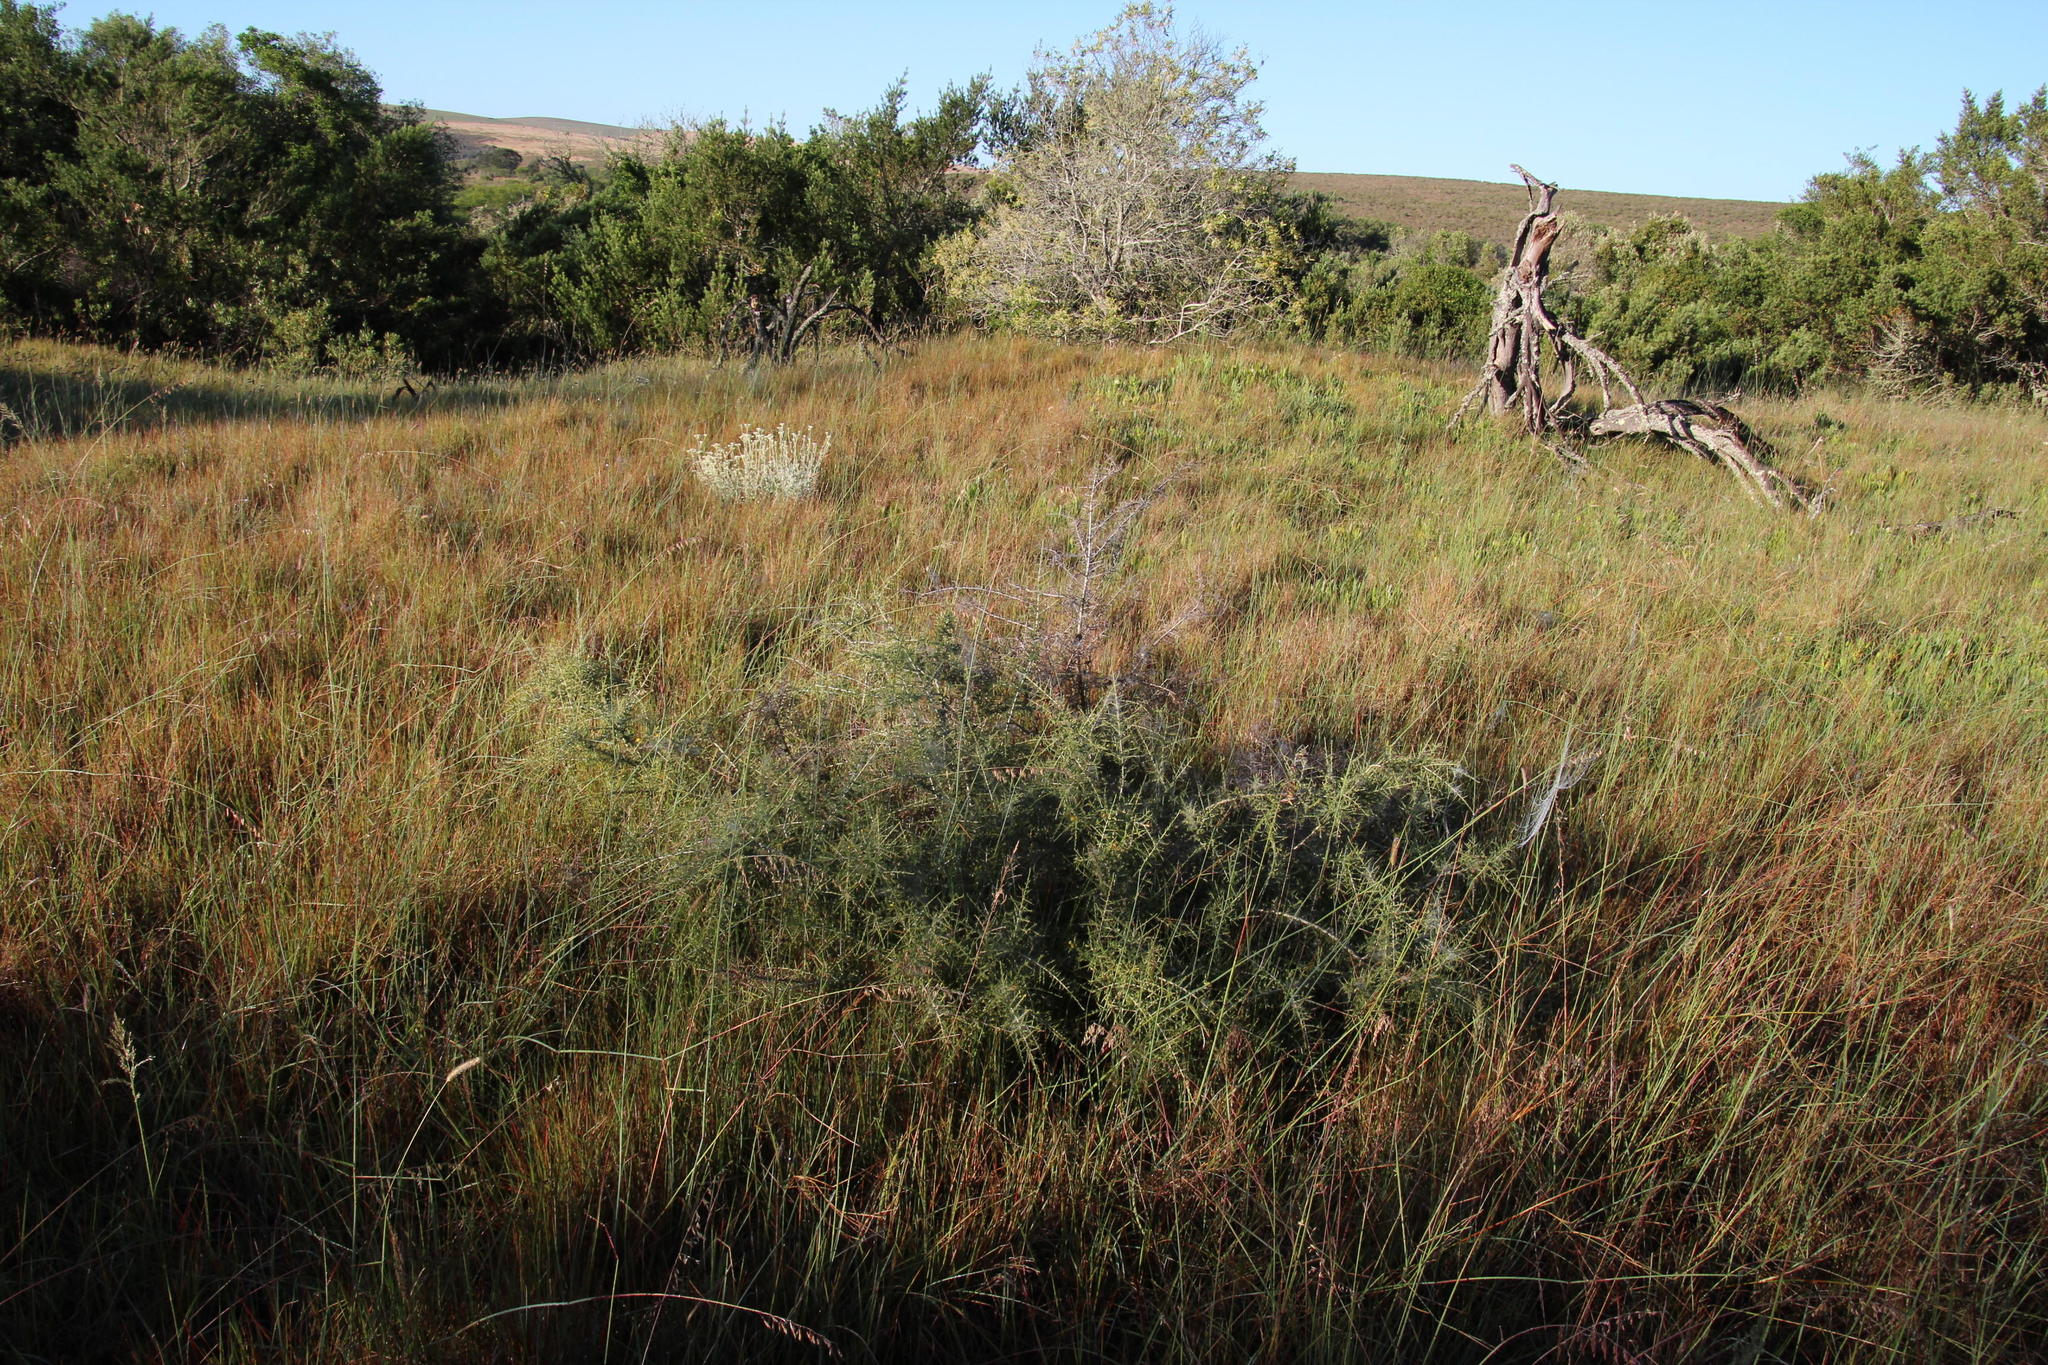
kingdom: Plantae
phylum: Tracheophyta
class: Magnoliopsida
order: Fabales
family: Fabaceae
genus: Aspalathus
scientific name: Aspalathus acuminata
